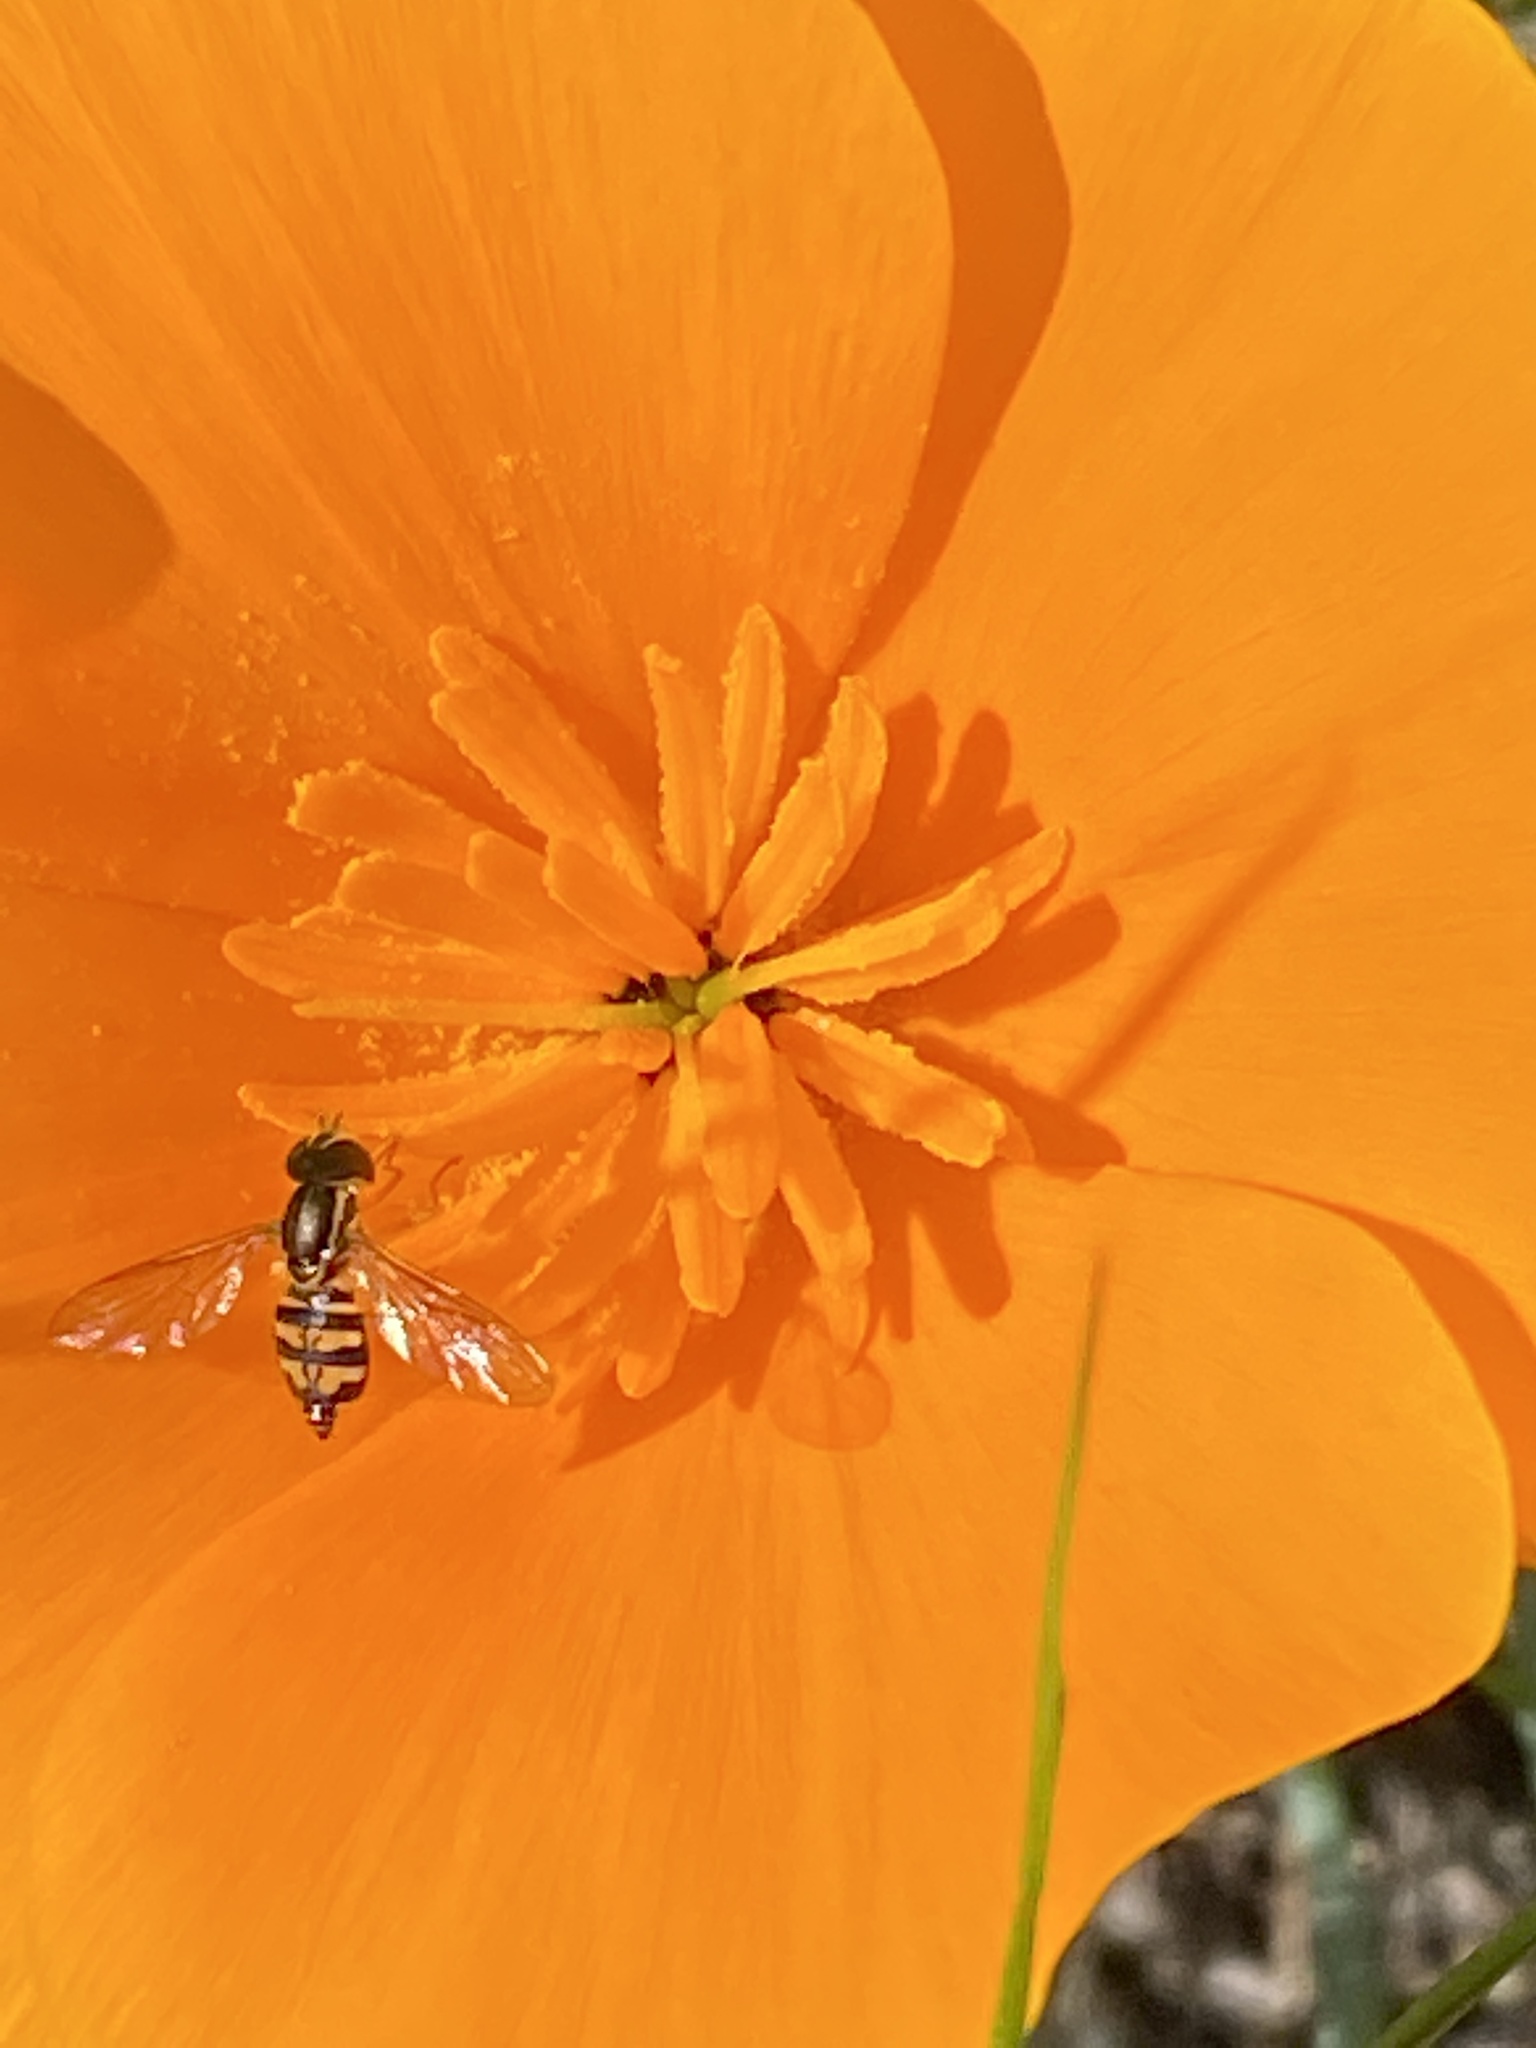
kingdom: Animalia
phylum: Arthropoda
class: Insecta
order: Diptera
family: Syrphidae
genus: Toxomerus
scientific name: Toxomerus occidentalis
